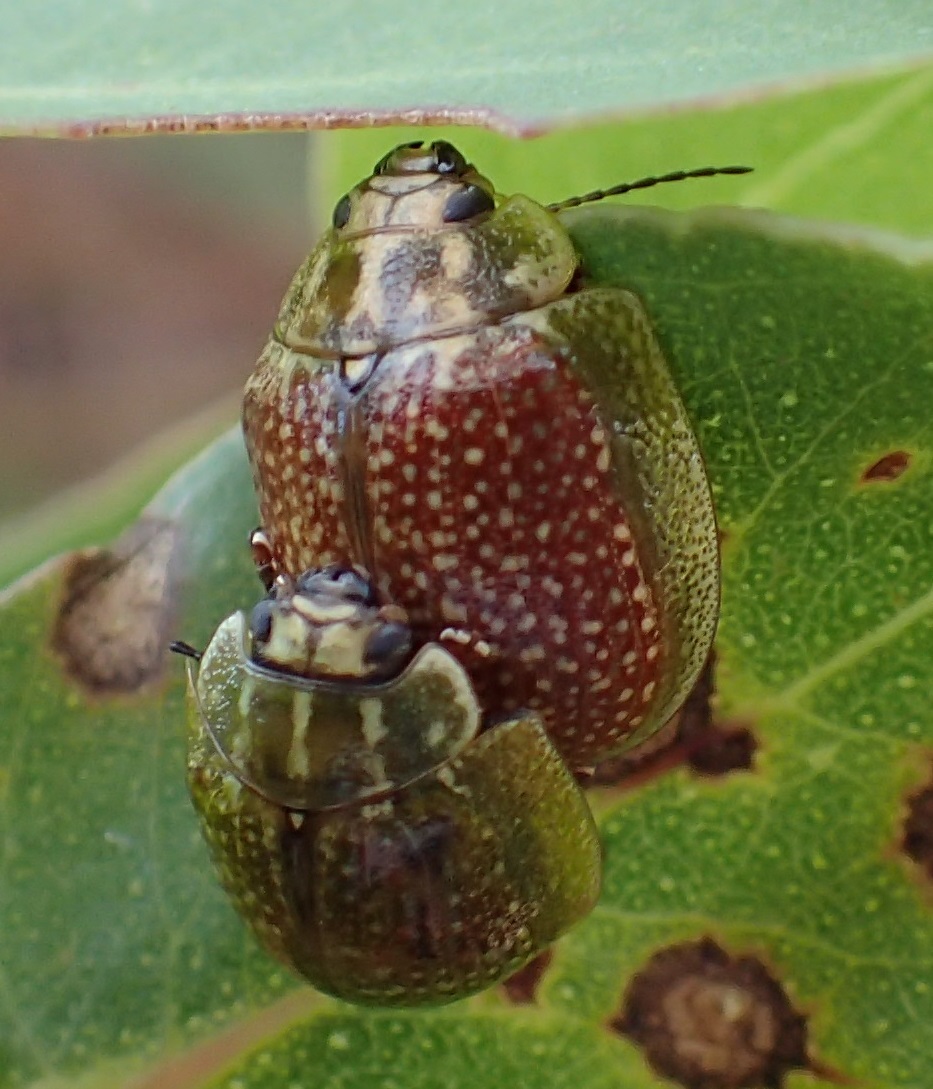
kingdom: Animalia
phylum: Arthropoda
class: Insecta
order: Coleoptera
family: Chrysomelidae
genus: Paropsisterna
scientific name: Paropsisterna cloelia
